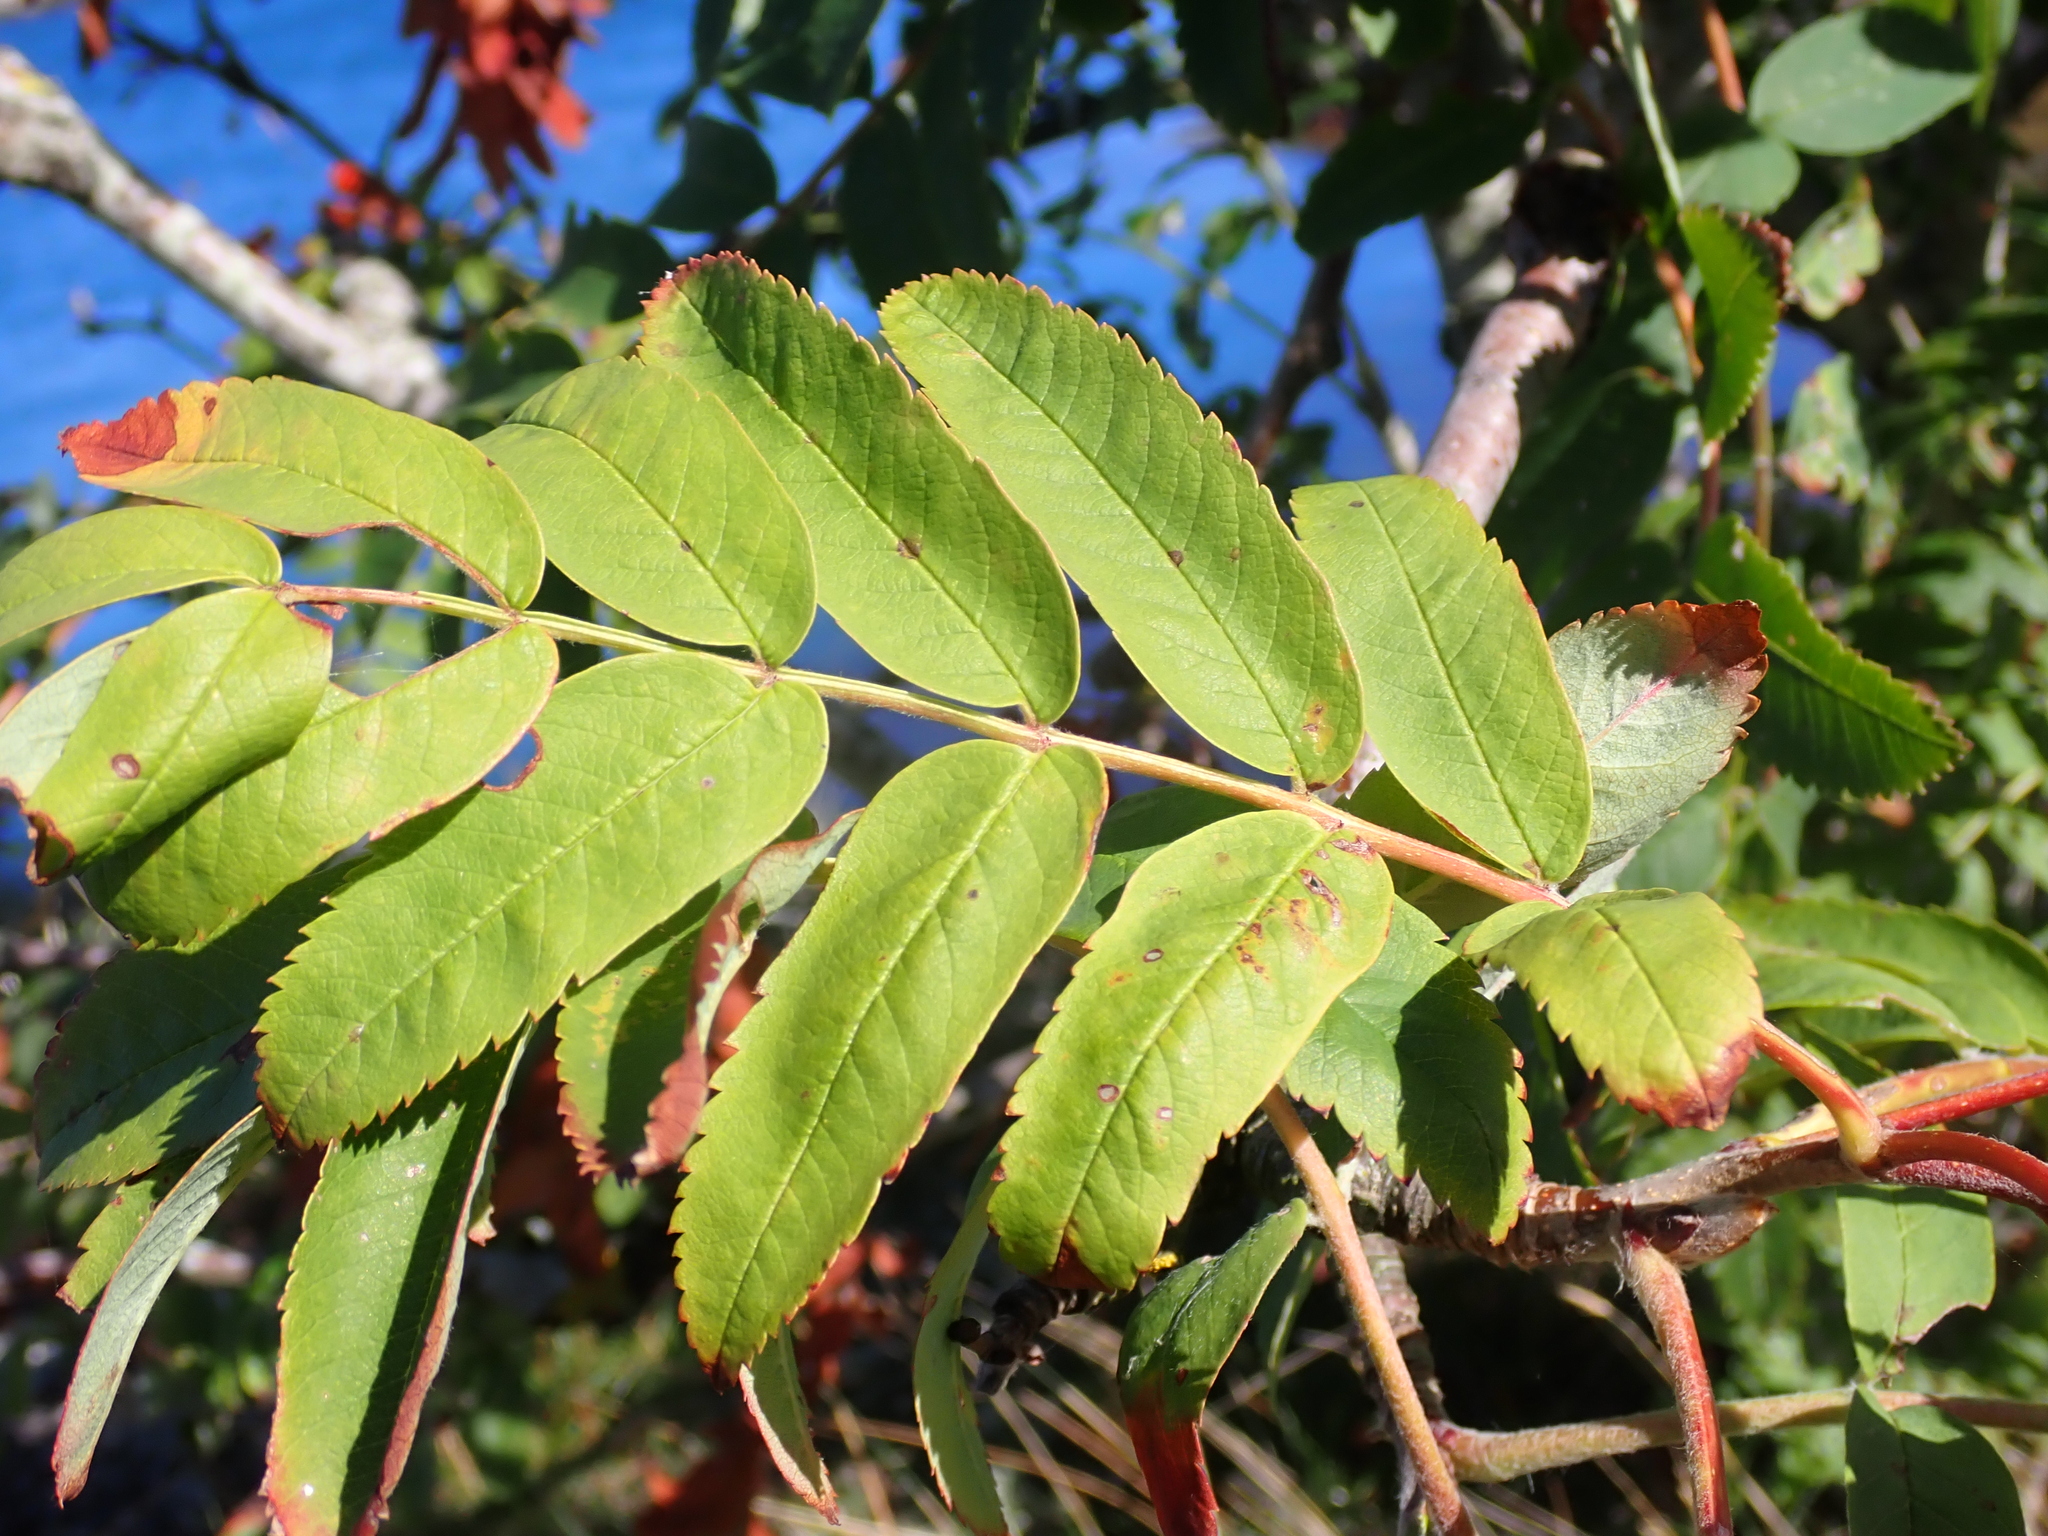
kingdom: Plantae
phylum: Tracheophyta
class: Magnoliopsida
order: Rosales
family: Rosaceae
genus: Sorbus
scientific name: Sorbus aucuparia
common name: Rowan
